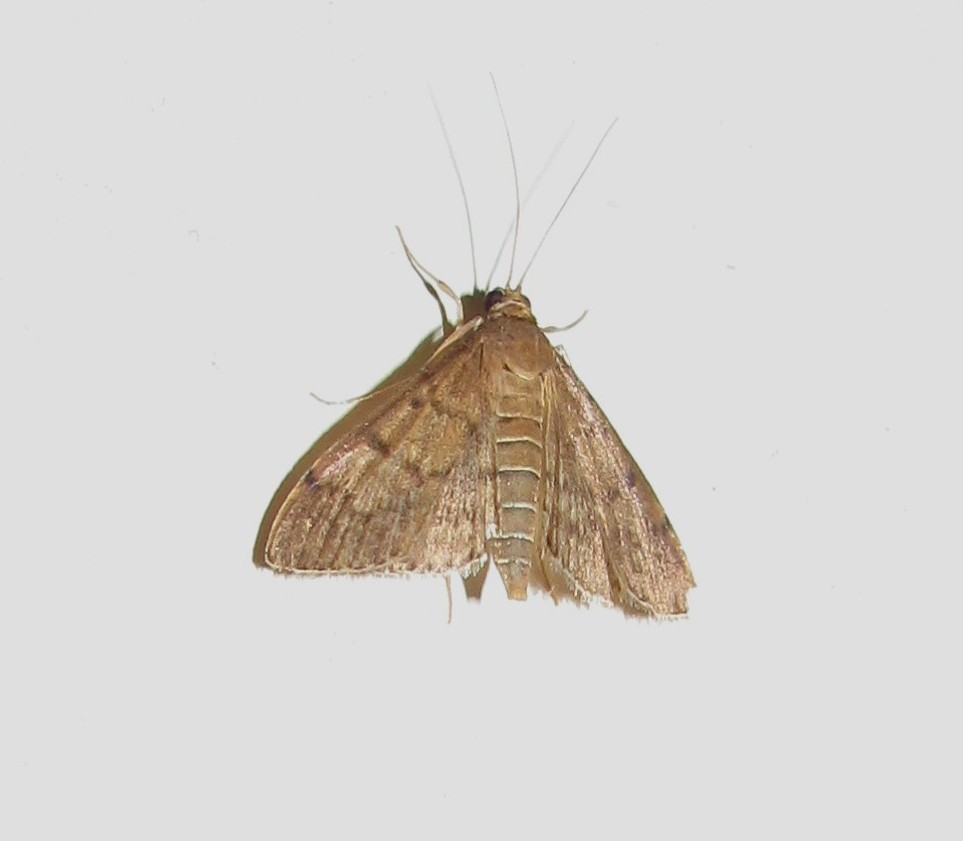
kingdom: Animalia
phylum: Arthropoda
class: Insecta
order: Lepidoptera
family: Crambidae
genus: Herpetogramma
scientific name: Herpetogramma phaeopteralis
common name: Dusky herpetogramma moth
